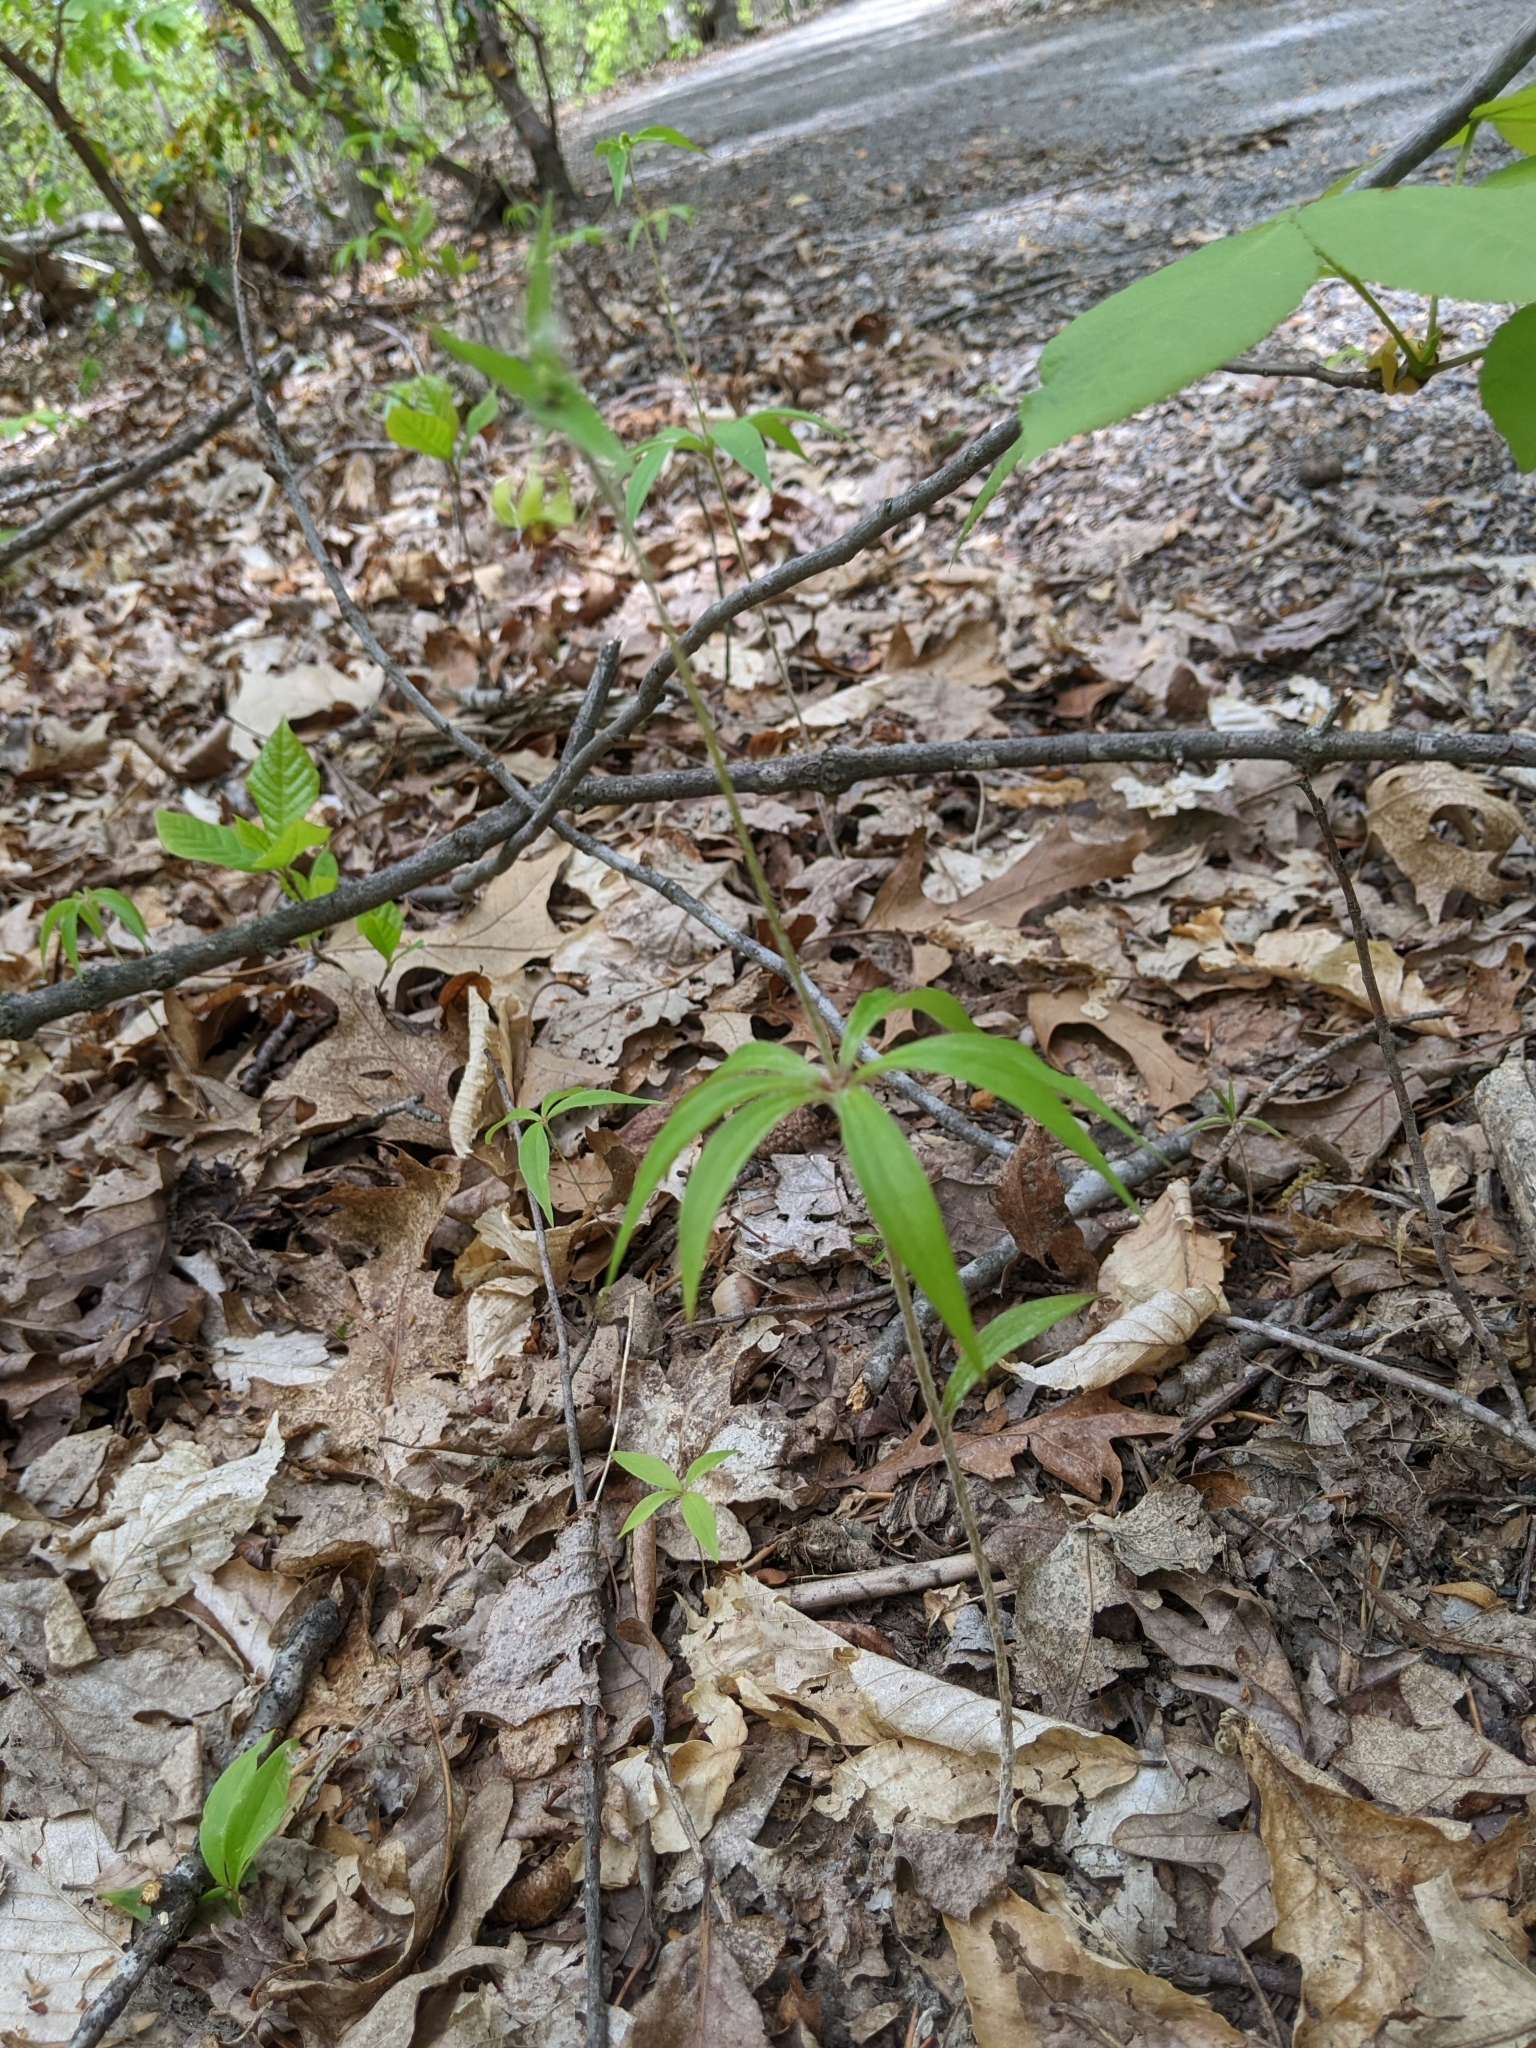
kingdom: Plantae
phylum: Tracheophyta
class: Liliopsida
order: Liliales
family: Liliaceae
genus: Medeola
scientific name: Medeola virginiana
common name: Indian cucumber-root
